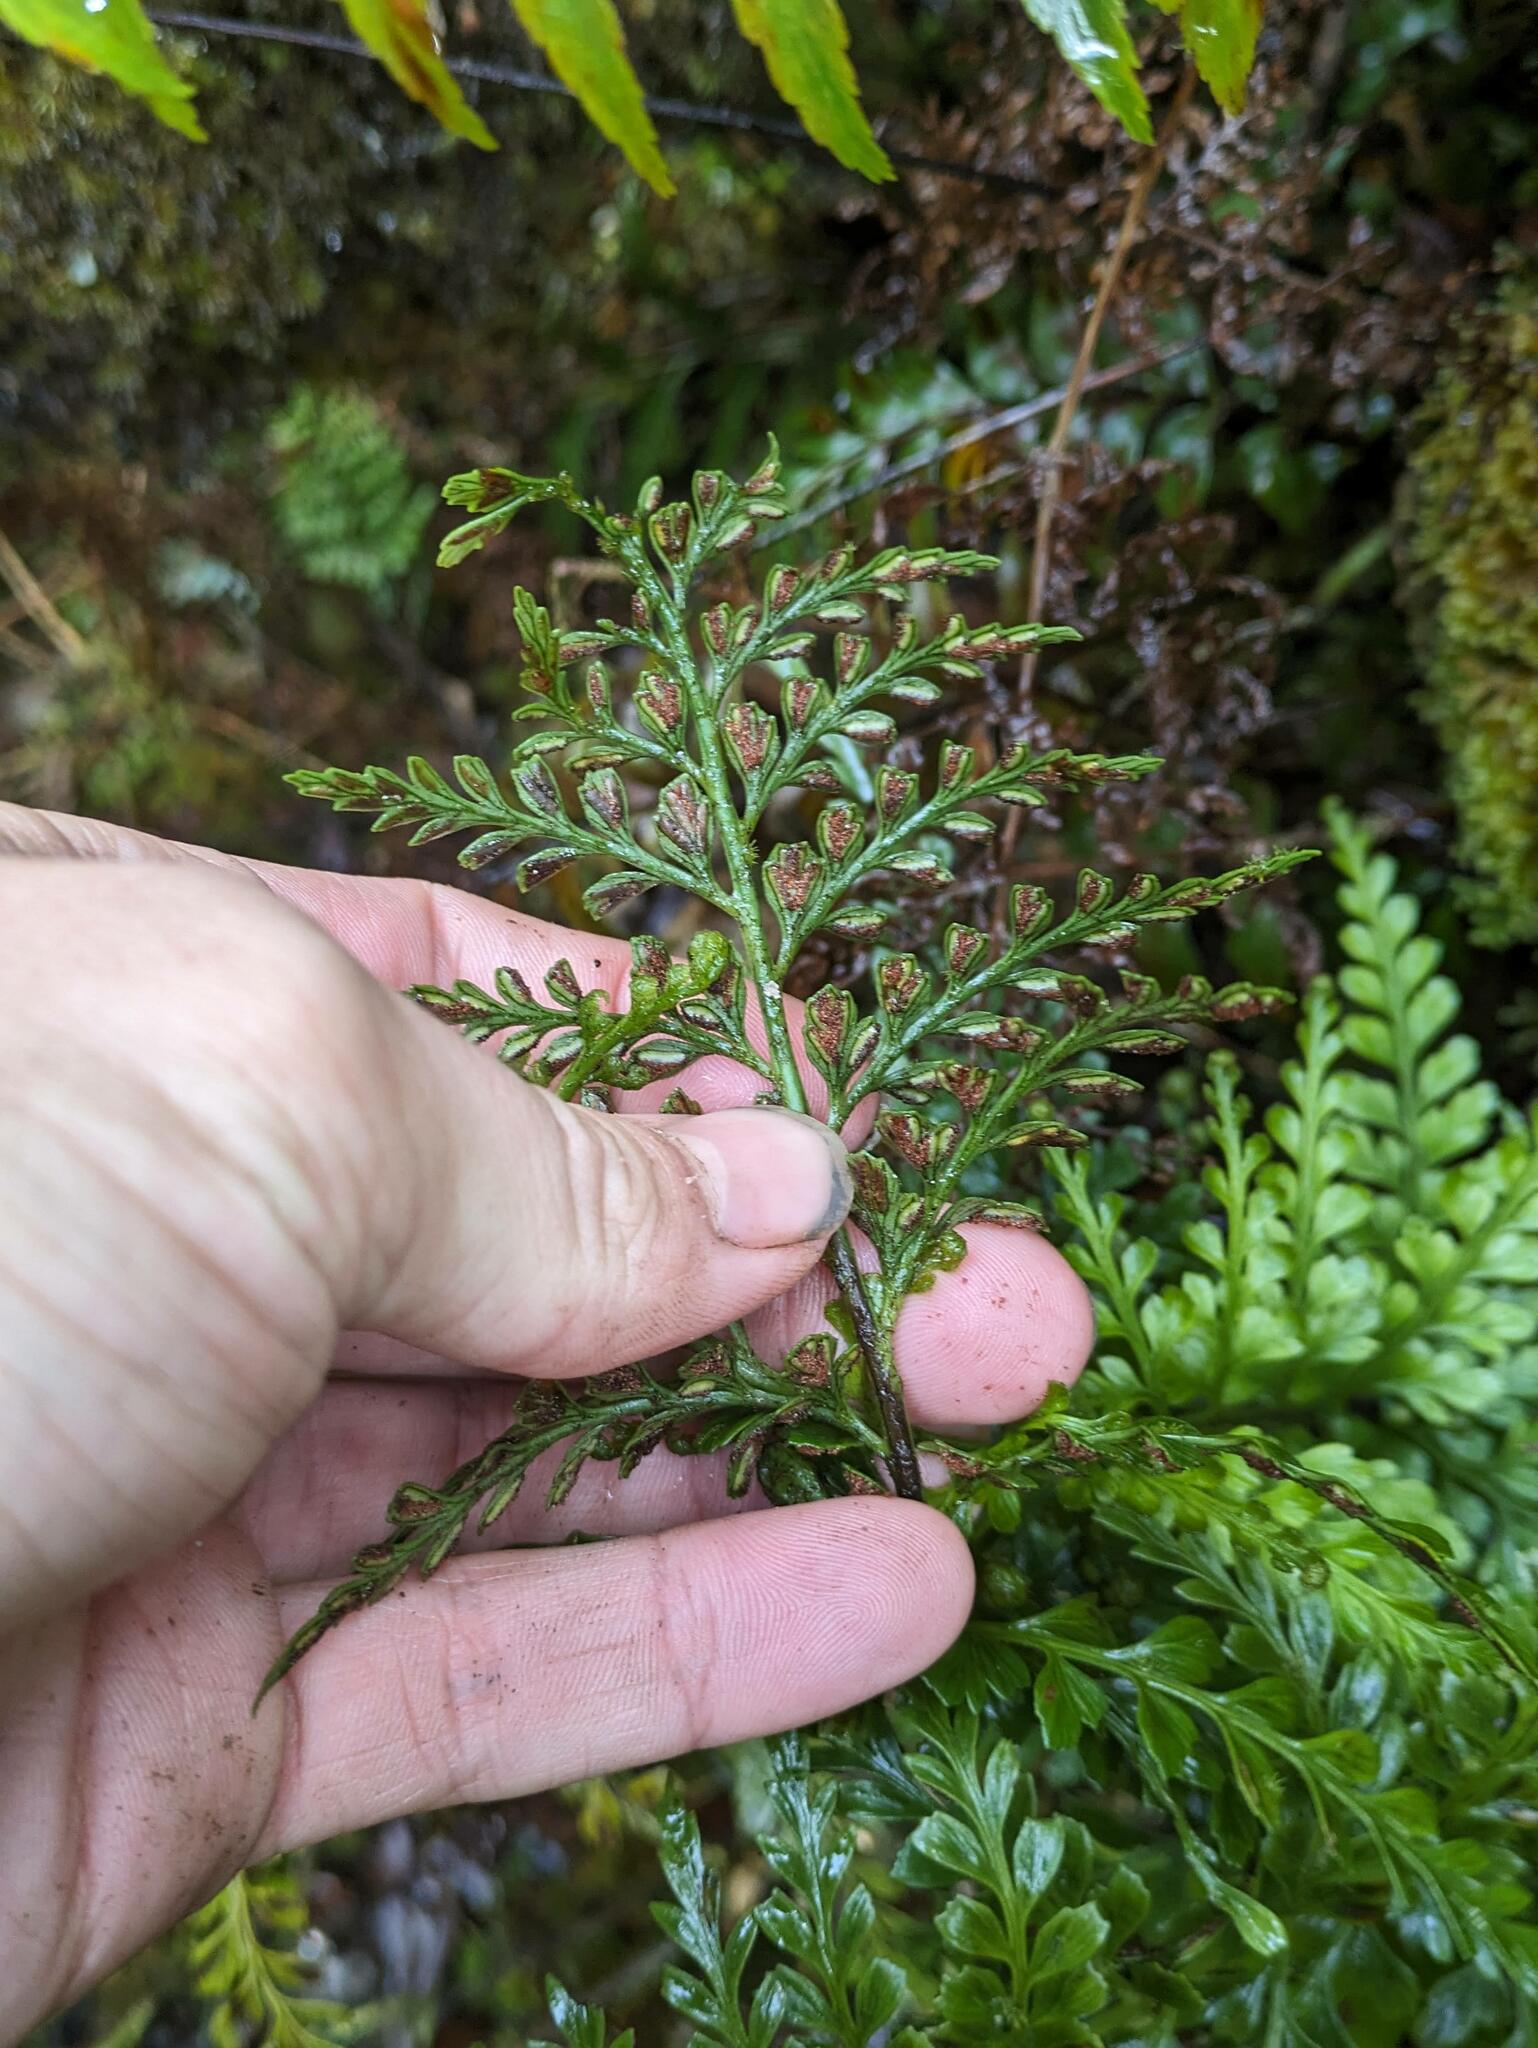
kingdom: Plantae
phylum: Tracheophyta
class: Polypodiopsida
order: Polypodiales
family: Aspleniaceae
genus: Asplenium
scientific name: Asplenium sphenotomum
